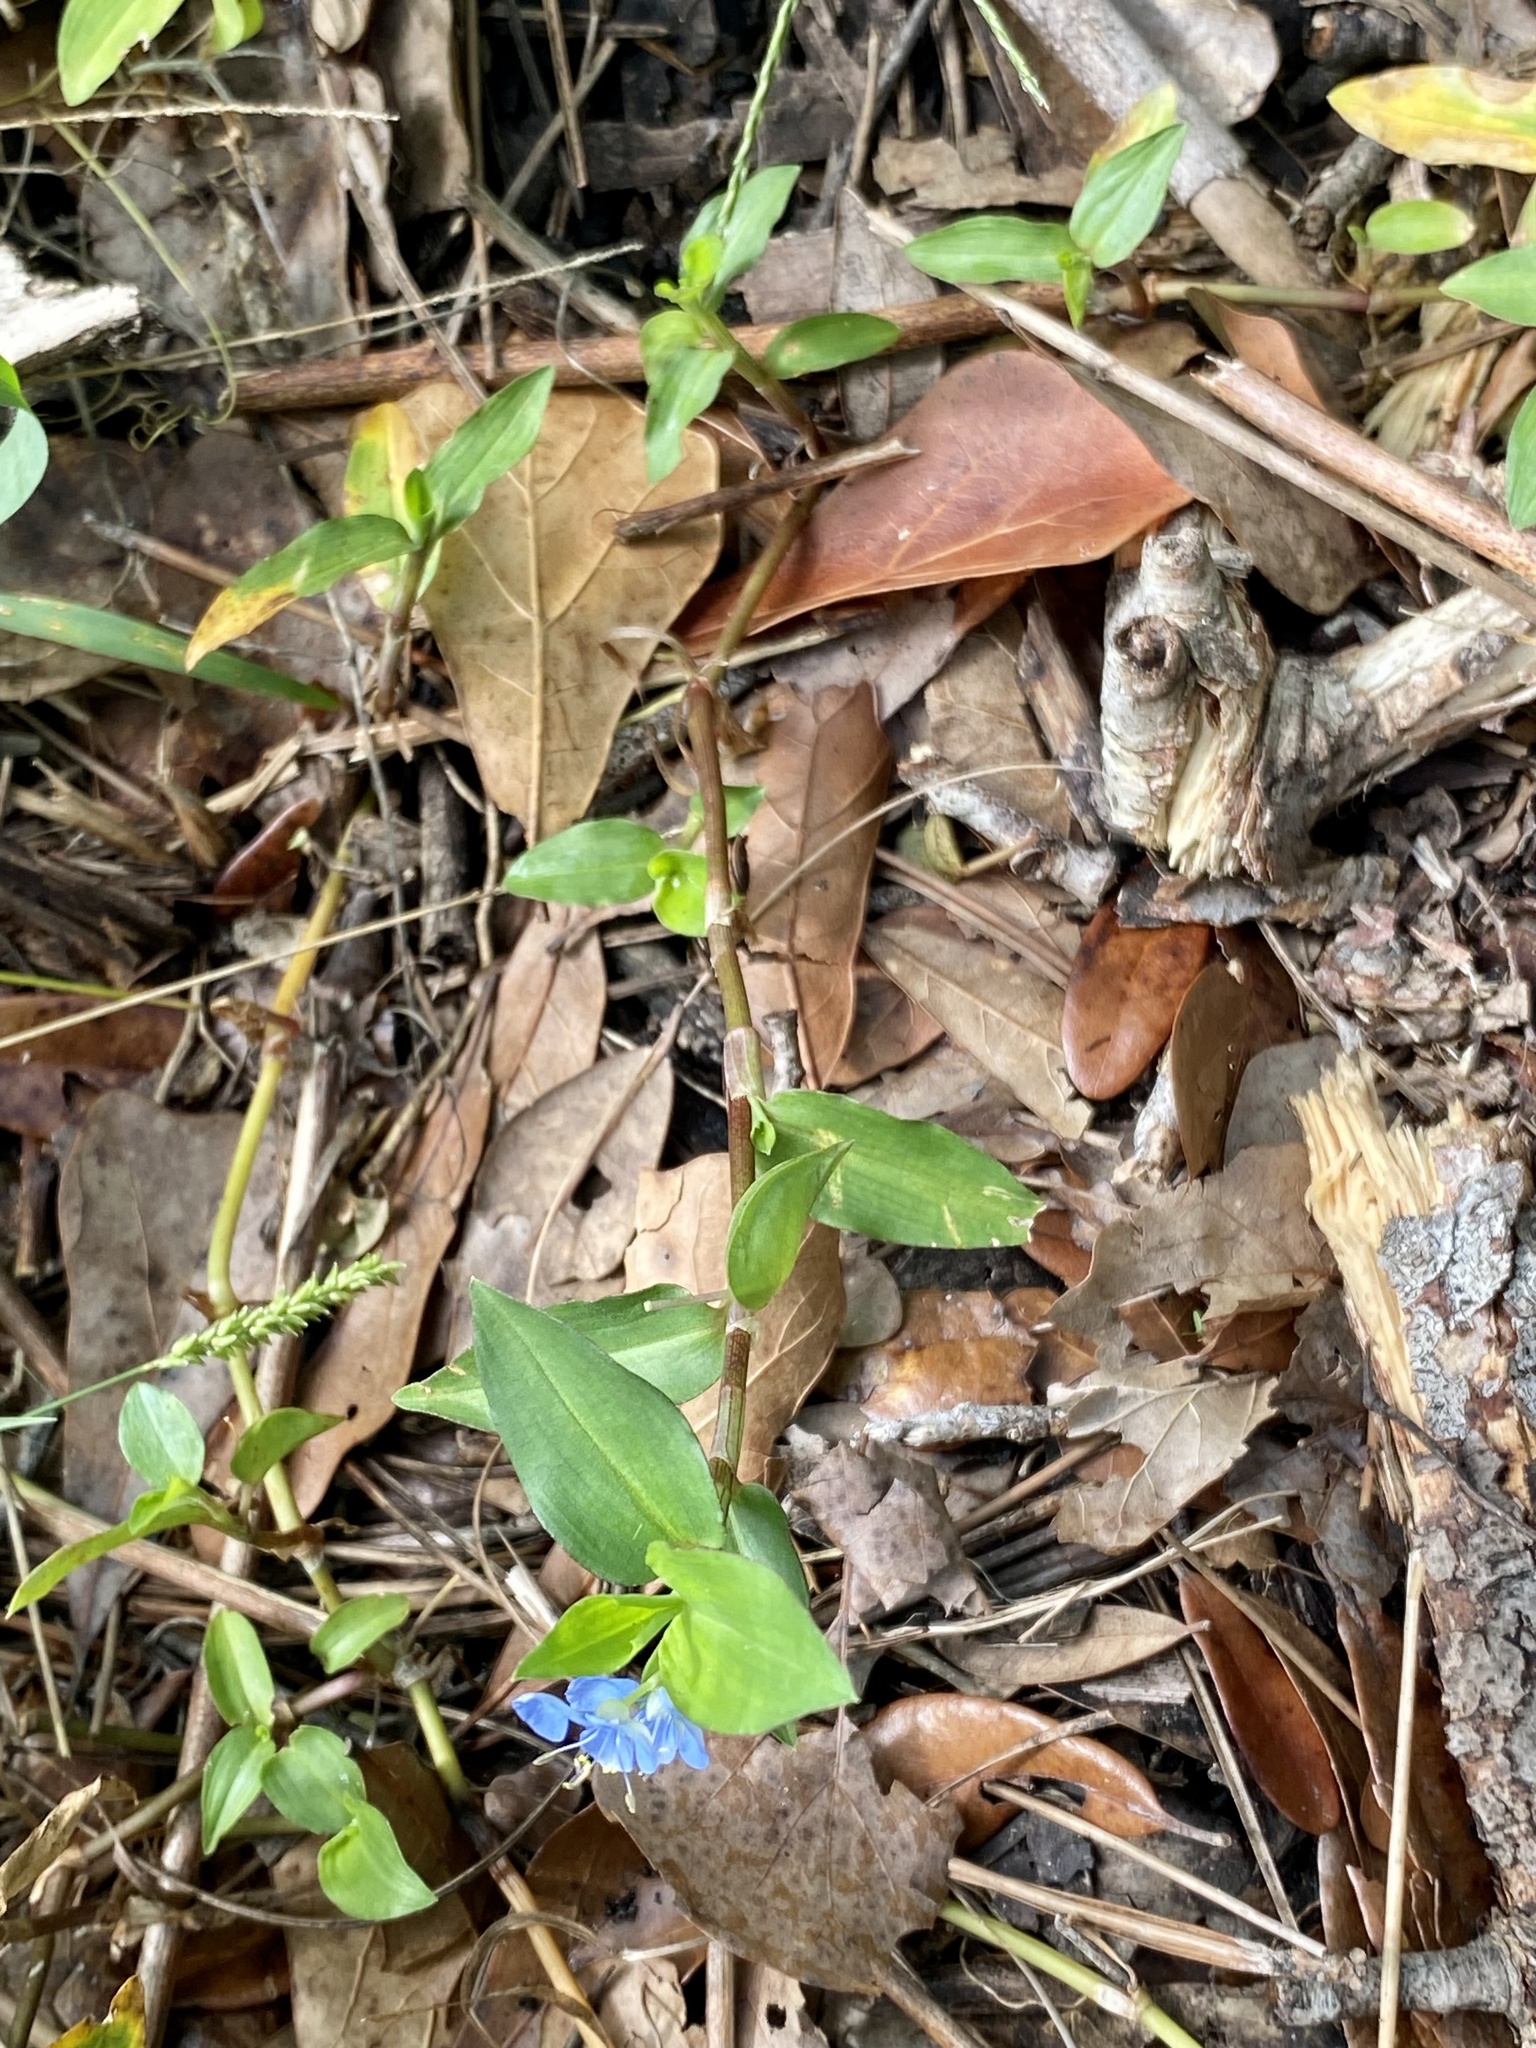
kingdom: Plantae
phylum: Tracheophyta
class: Liliopsida
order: Commelinales
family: Commelinaceae
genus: Commelina
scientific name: Commelina diffusa
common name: Climbing dayflower
